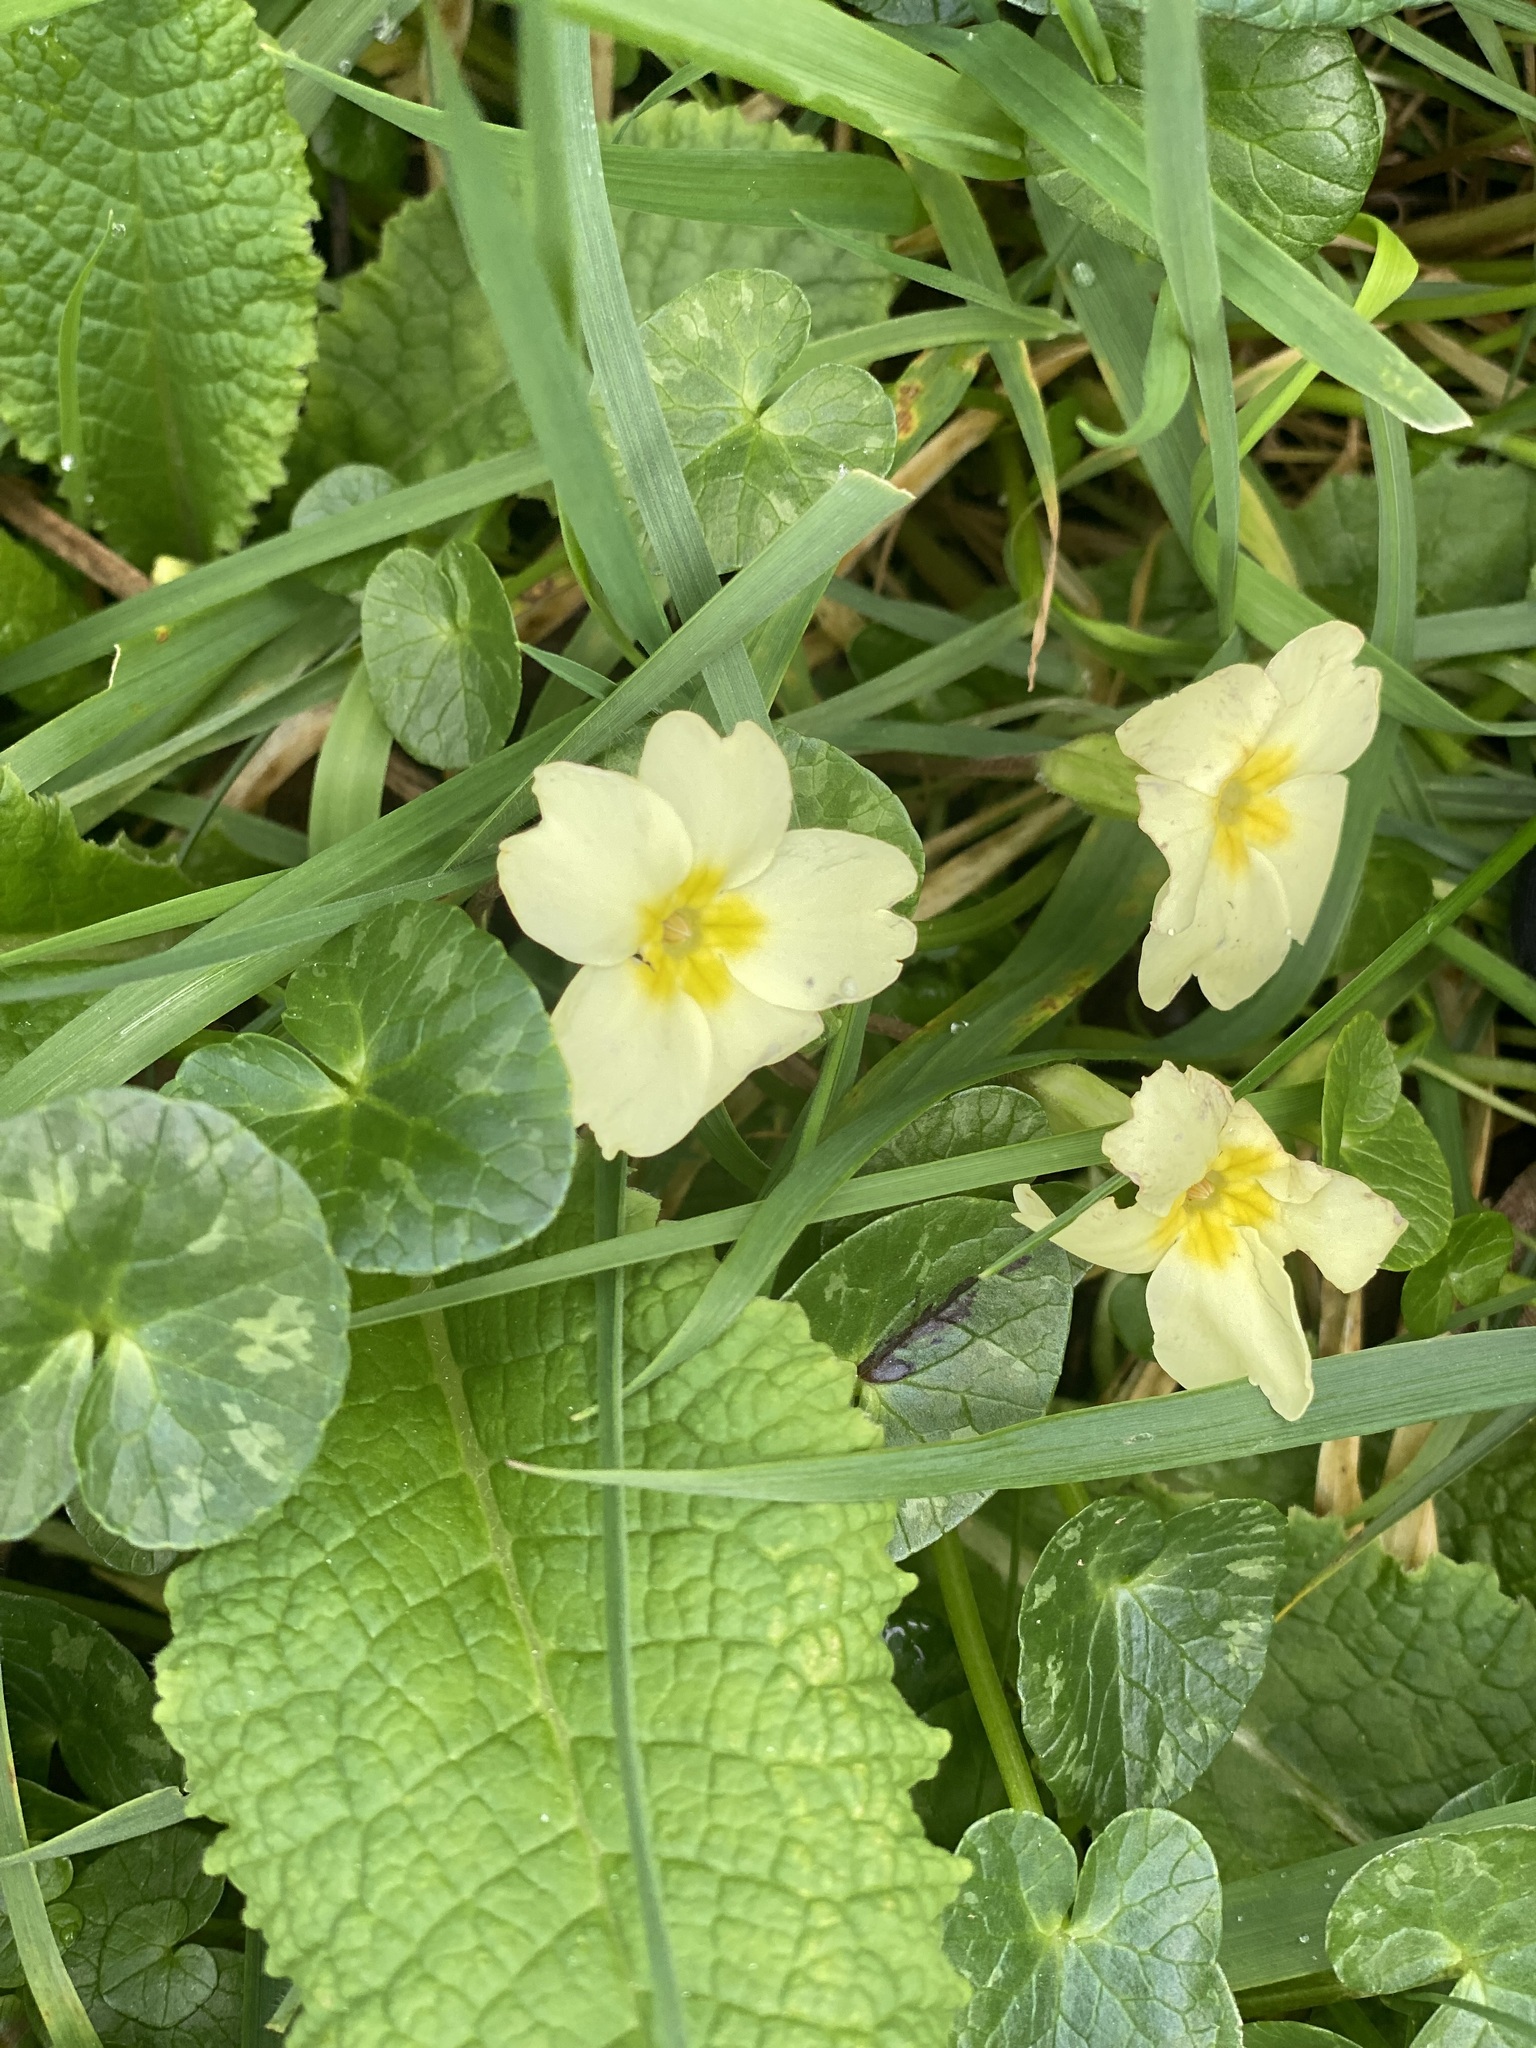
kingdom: Plantae
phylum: Tracheophyta
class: Magnoliopsida
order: Ericales
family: Primulaceae
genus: Primula
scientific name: Primula vulgaris
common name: Primrose
